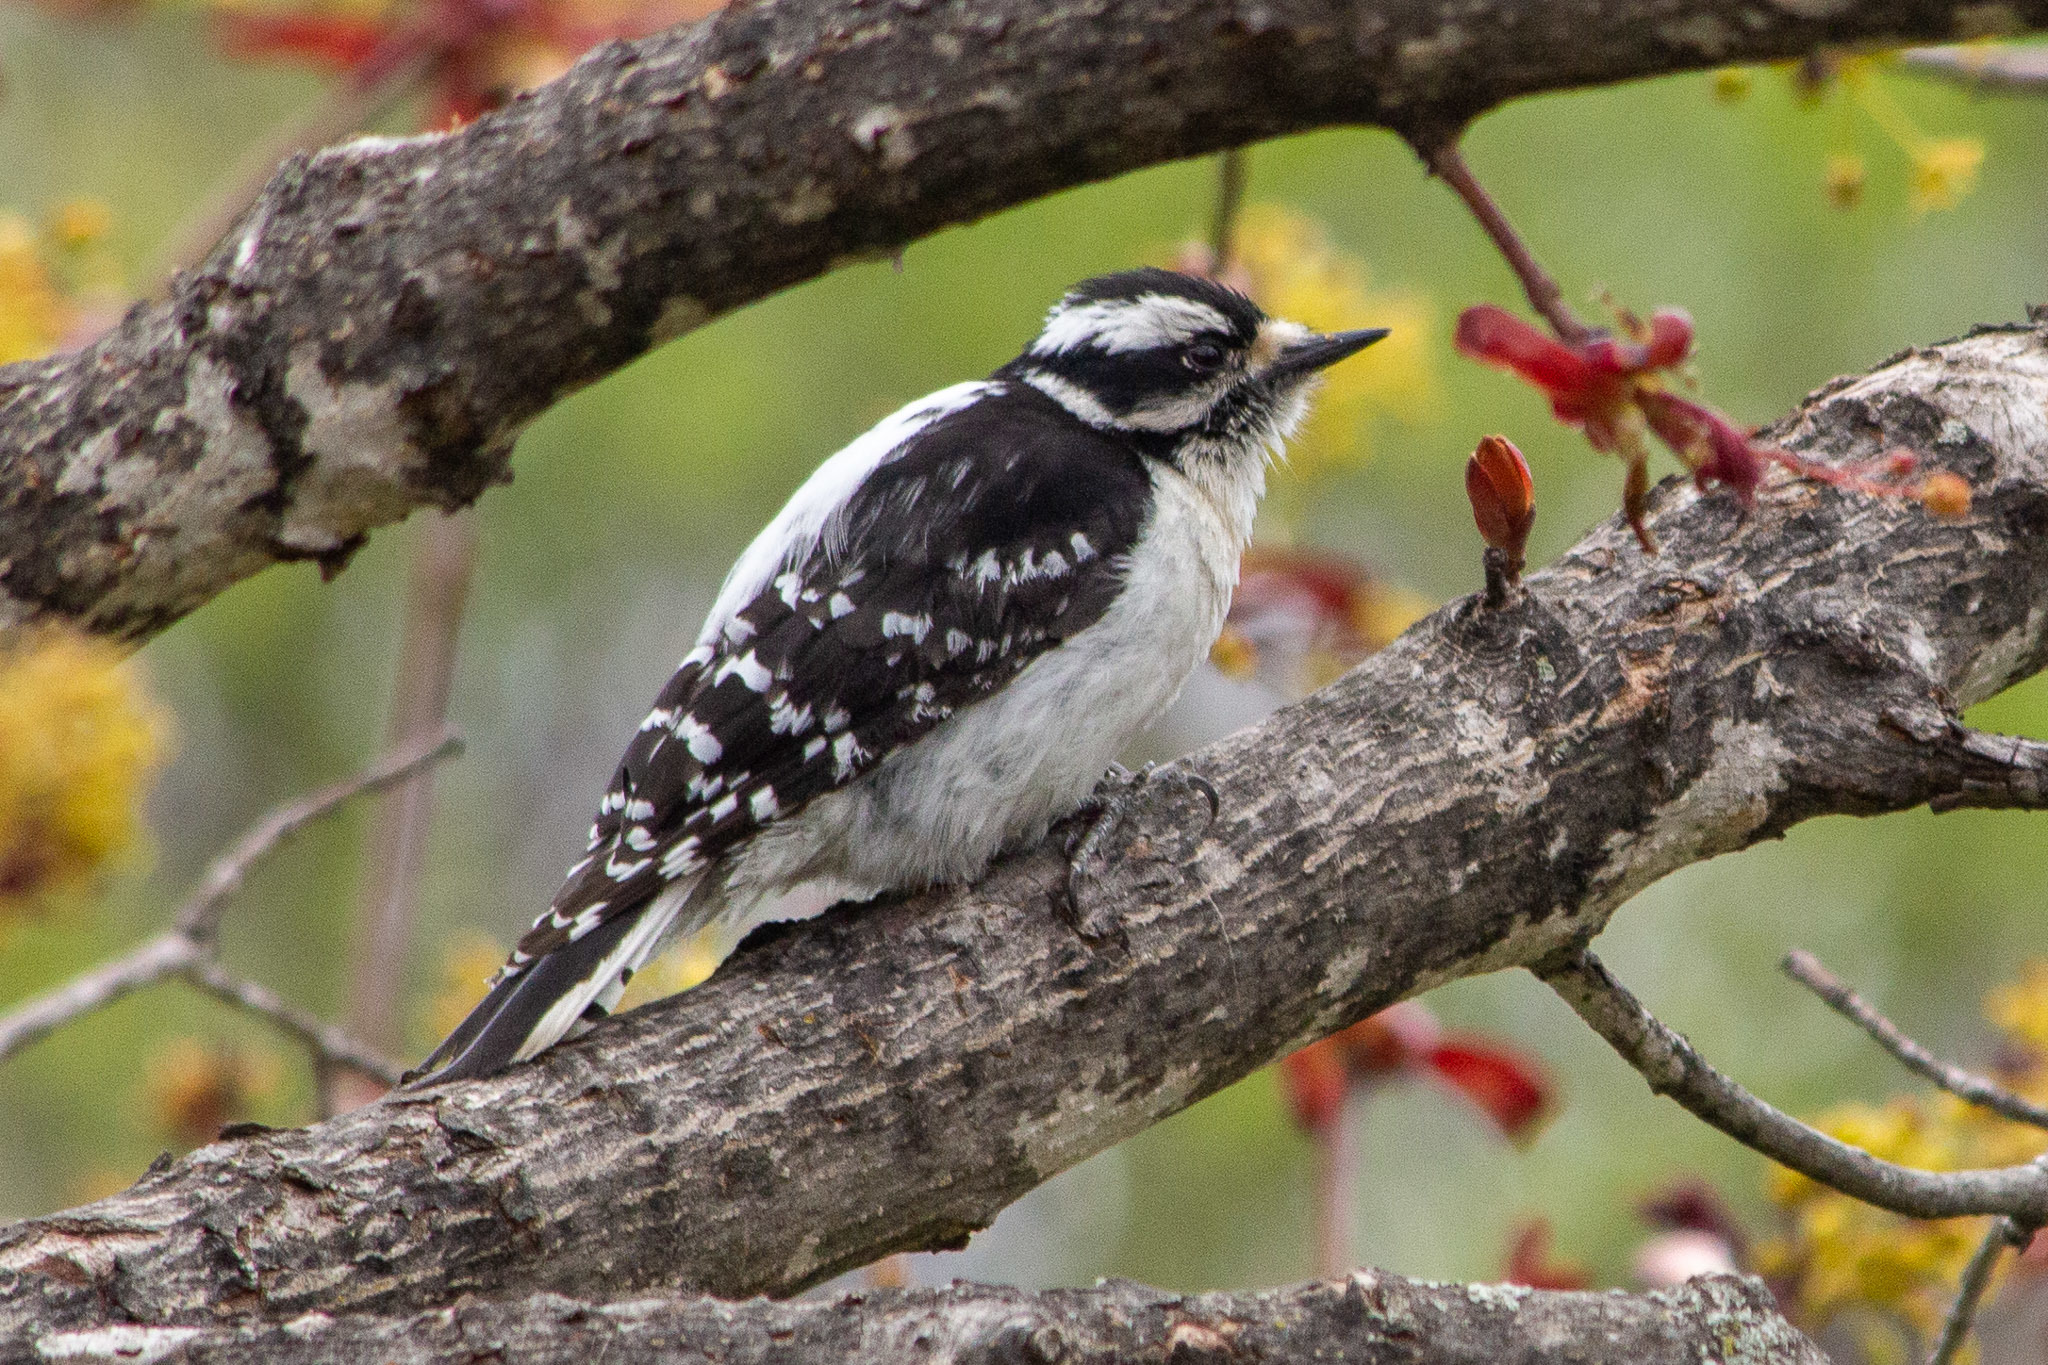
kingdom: Animalia
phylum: Chordata
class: Aves
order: Piciformes
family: Picidae
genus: Dryobates
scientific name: Dryobates pubescens
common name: Downy woodpecker
